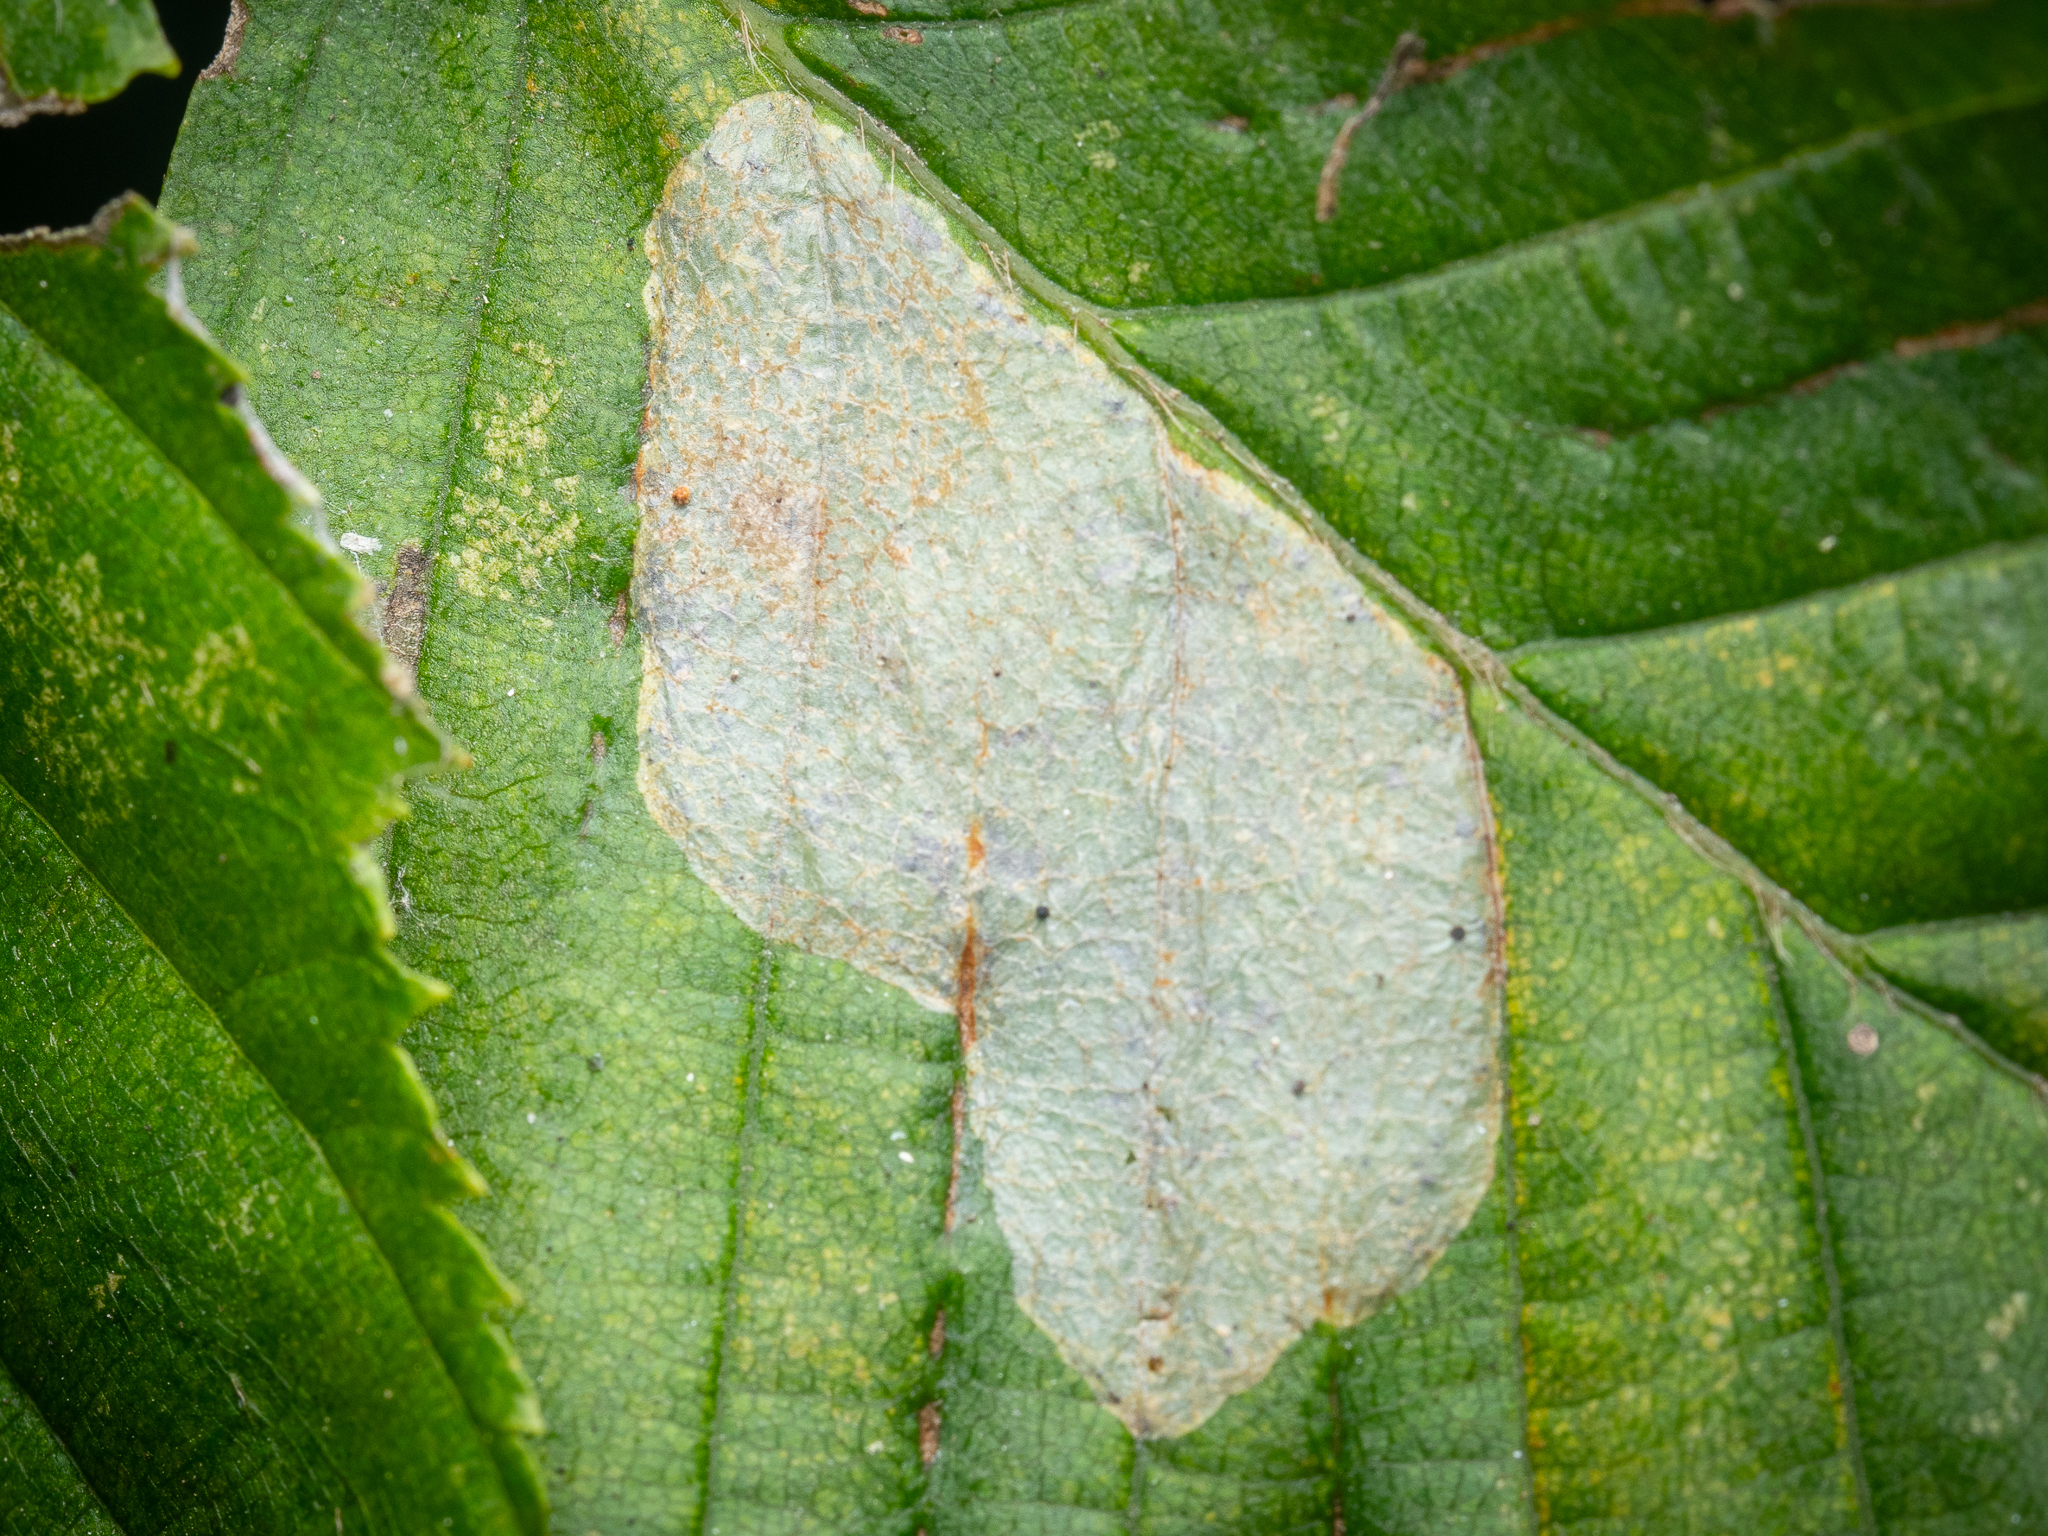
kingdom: Animalia
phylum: Arthropoda
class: Insecta
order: Lepidoptera
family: Gracillariidae
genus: Phyllonorycter
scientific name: Phyllonorycter coryli
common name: Nut-leaf blister moth
